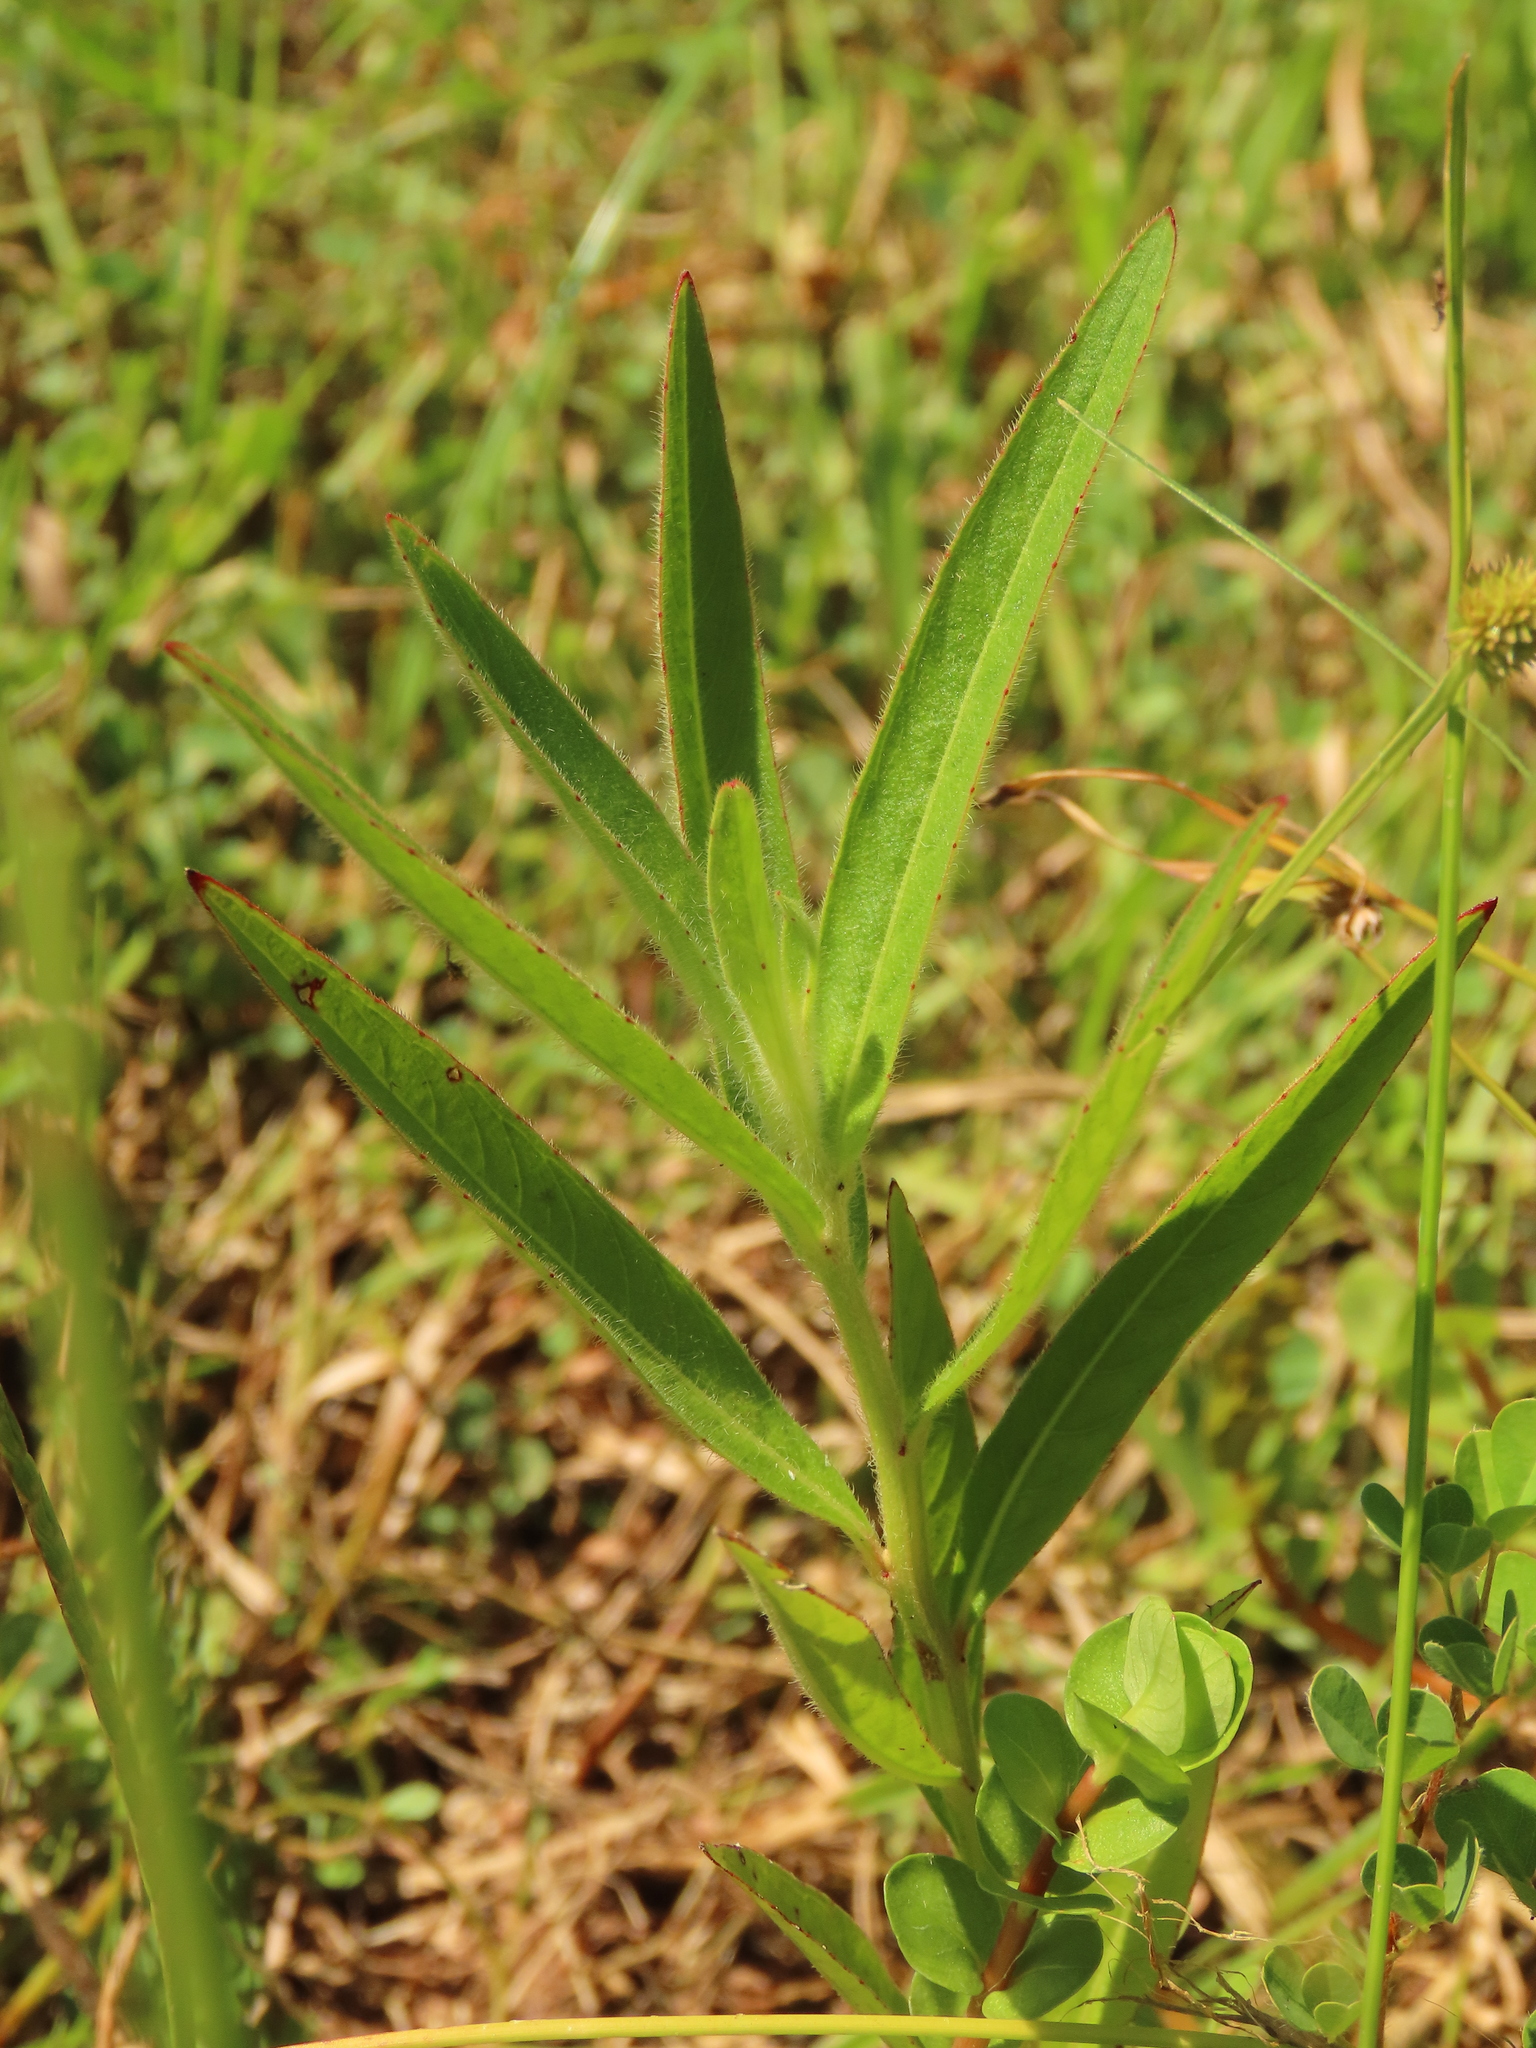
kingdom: Plantae
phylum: Tracheophyta
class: Magnoliopsida
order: Myrtales
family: Onagraceae
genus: Ludwigia
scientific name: Ludwigia octovalvis
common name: Water-primrose
